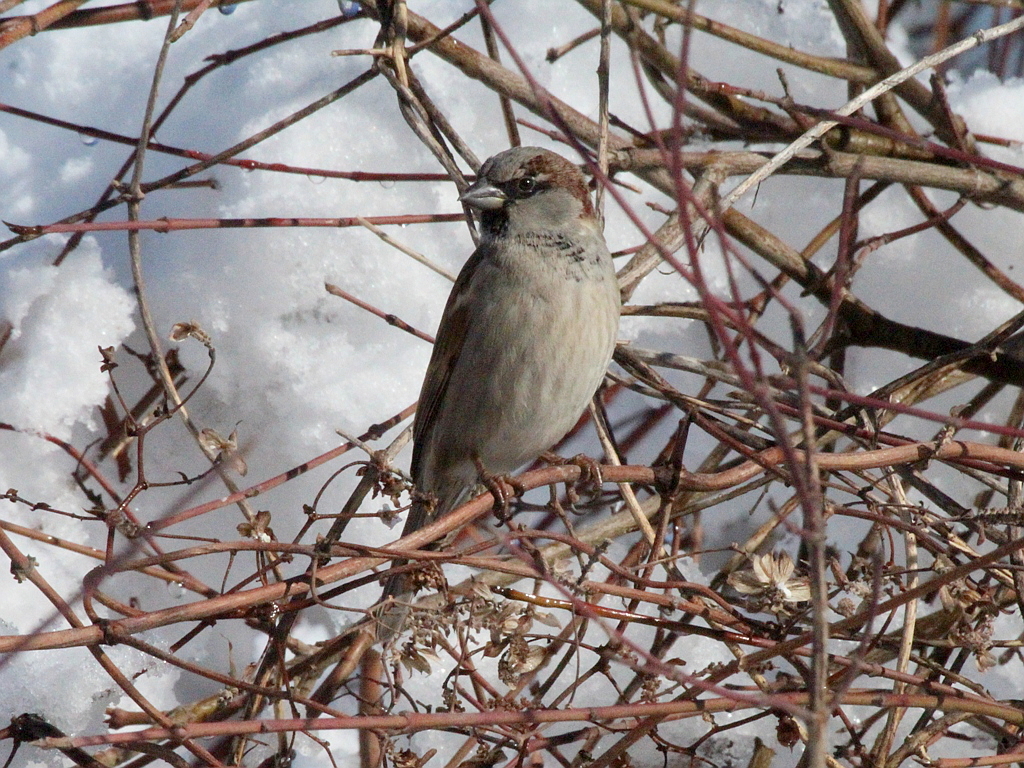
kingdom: Animalia
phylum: Chordata
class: Aves
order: Passeriformes
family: Passeridae
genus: Passer
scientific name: Passer domesticus
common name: House sparrow
